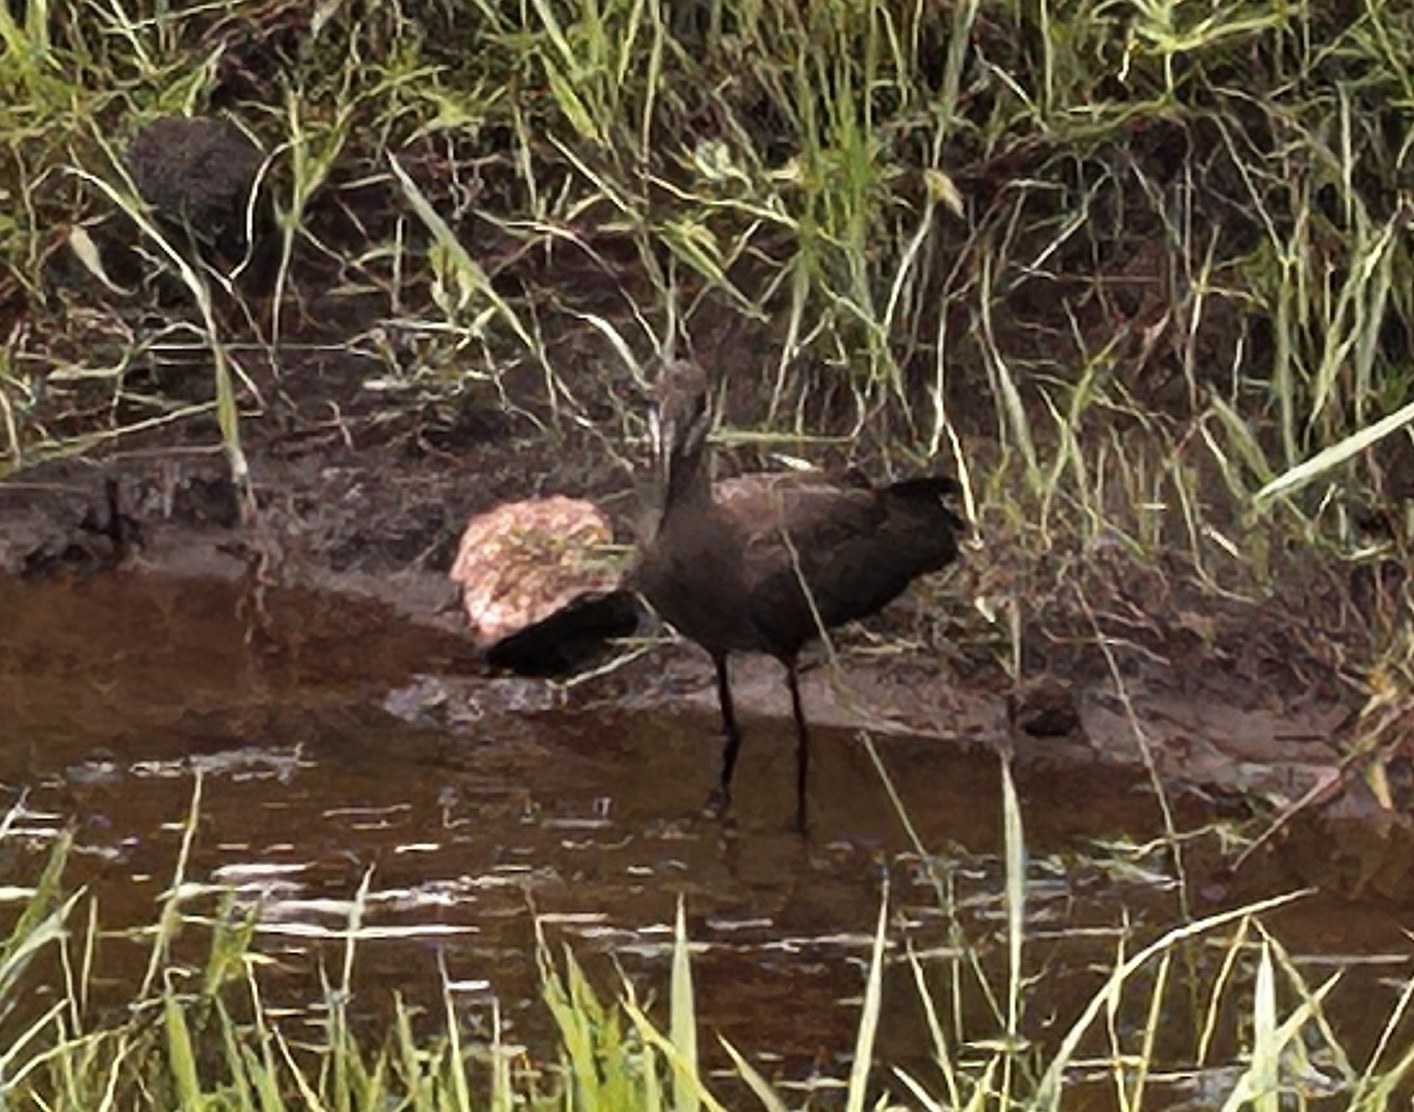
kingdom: Animalia
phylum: Chordata
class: Aves
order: Pelecaniformes
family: Scopidae
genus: Scopus
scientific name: Scopus umbretta
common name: Hamerkop
